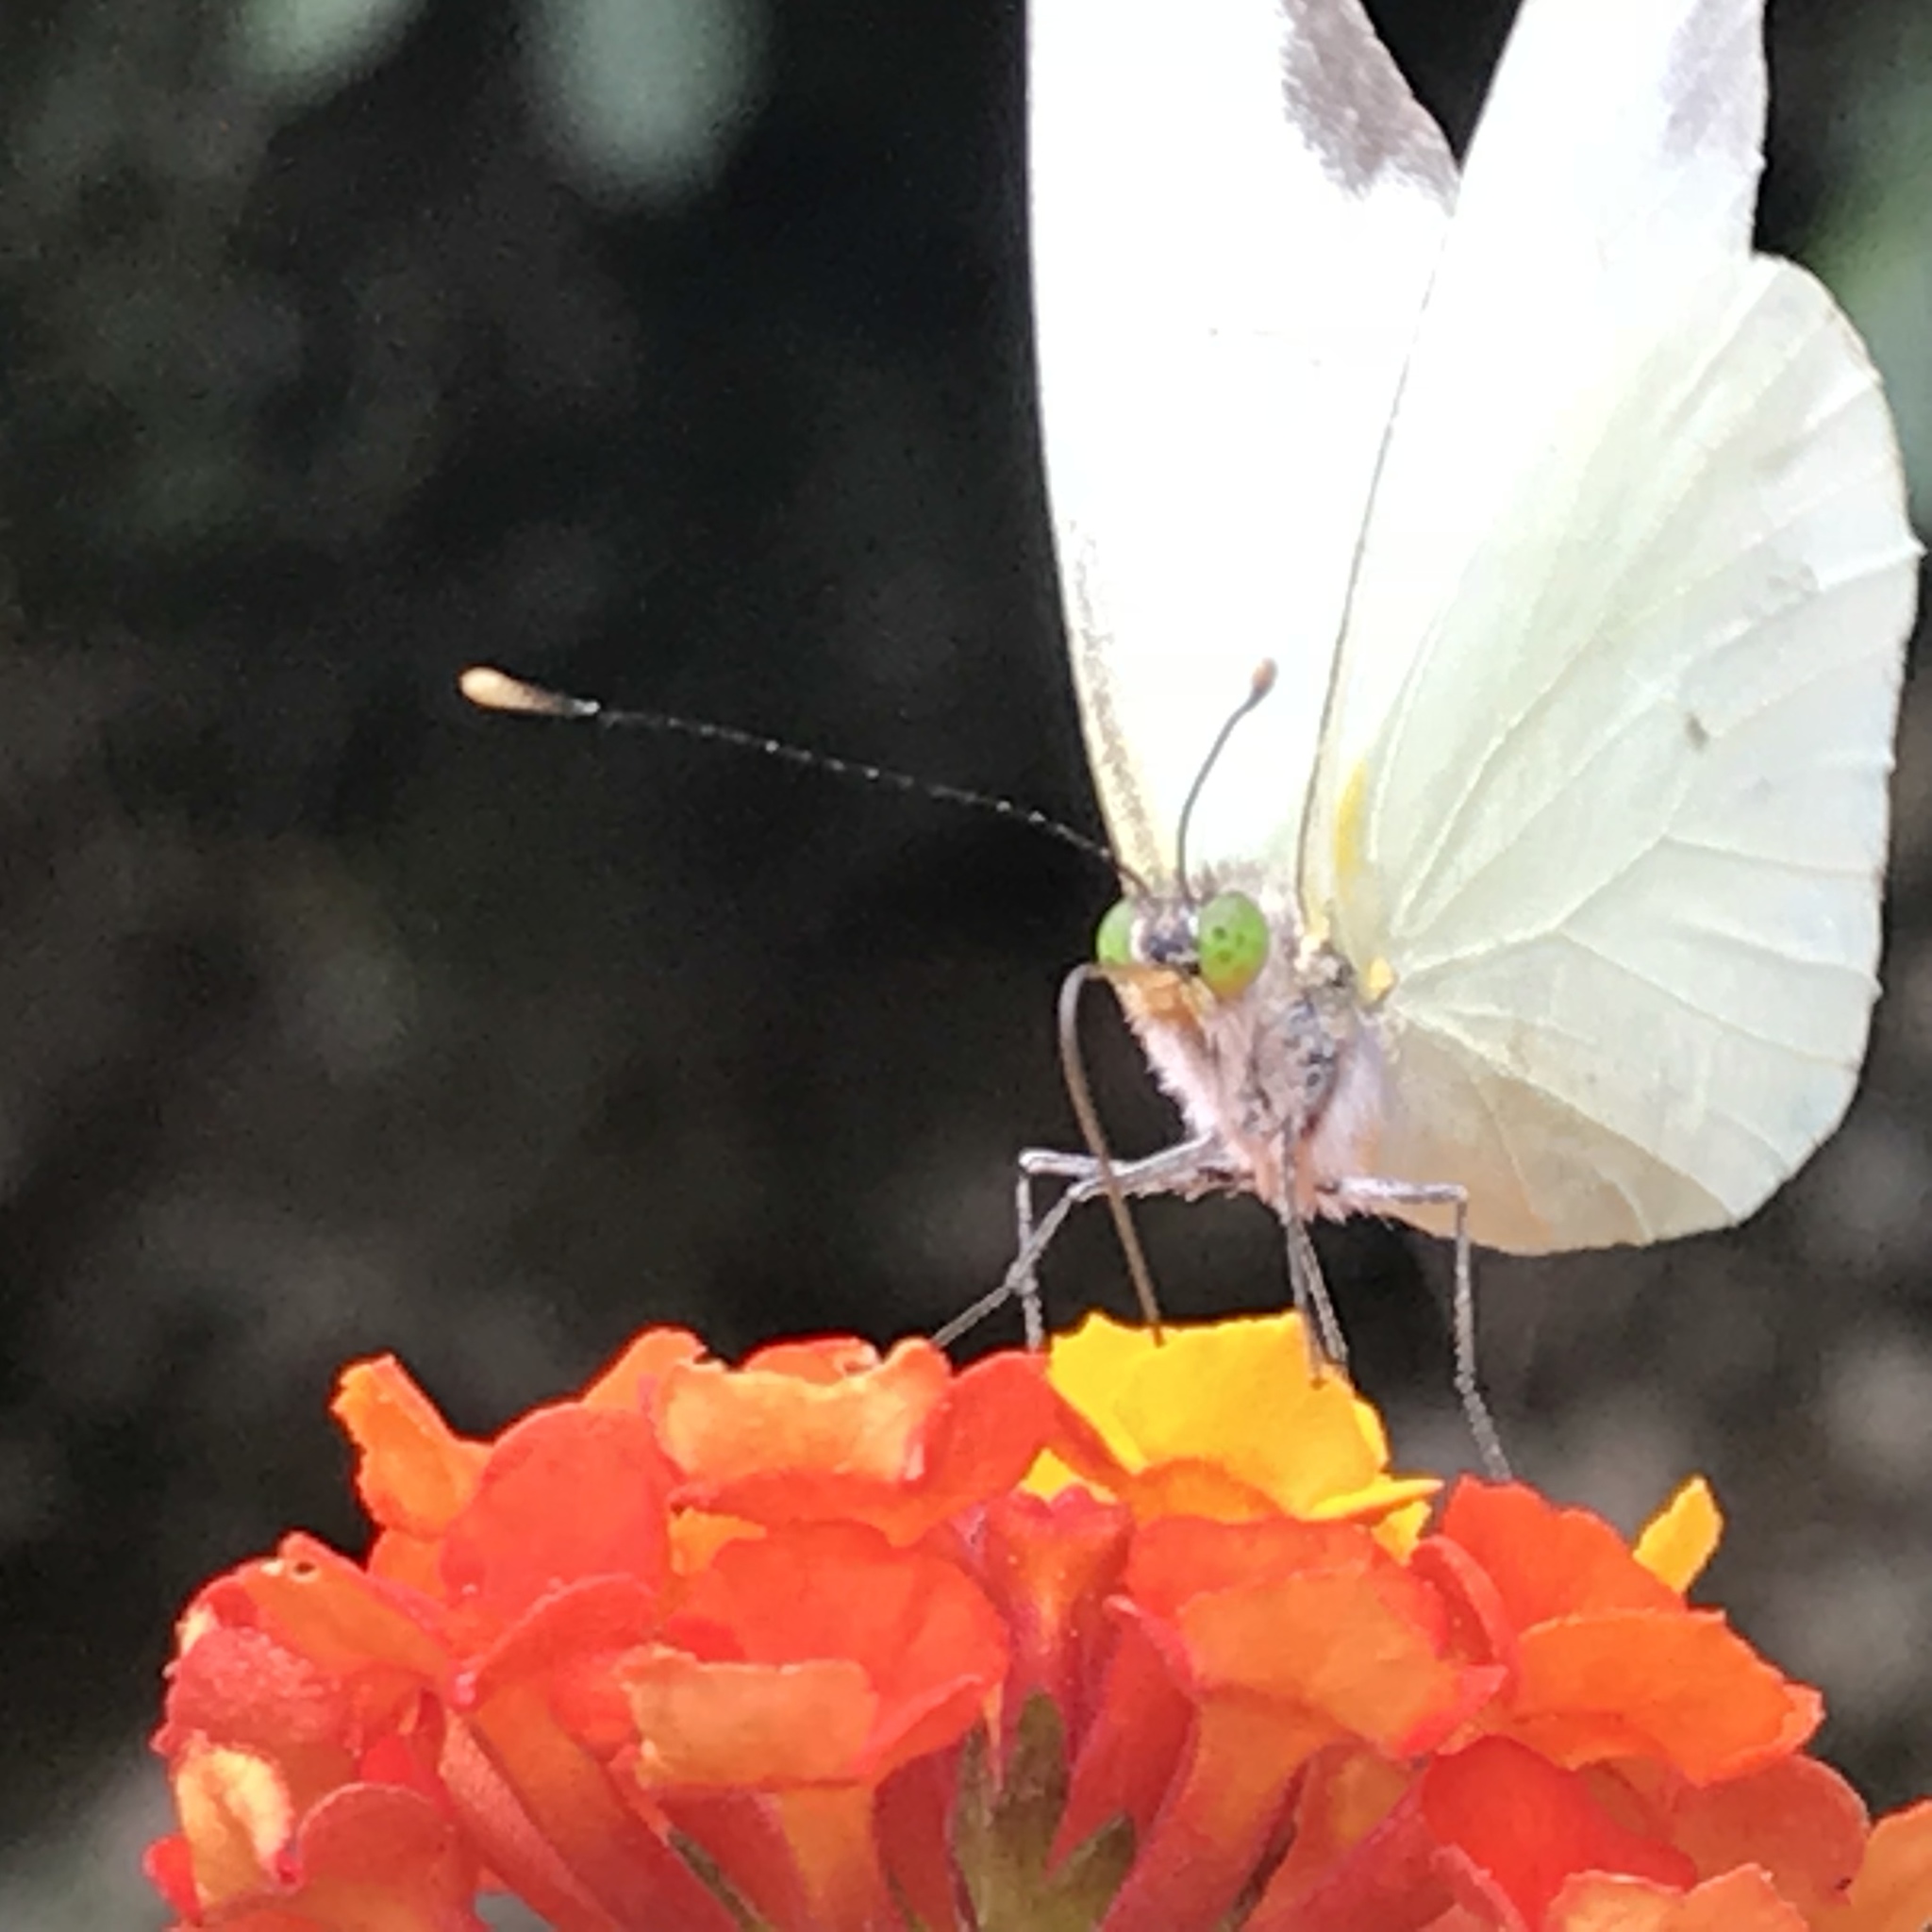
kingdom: Animalia
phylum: Arthropoda
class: Insecta
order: Lepidoptera
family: Pieridae
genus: Leptophobia
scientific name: Leptophobia aripa
